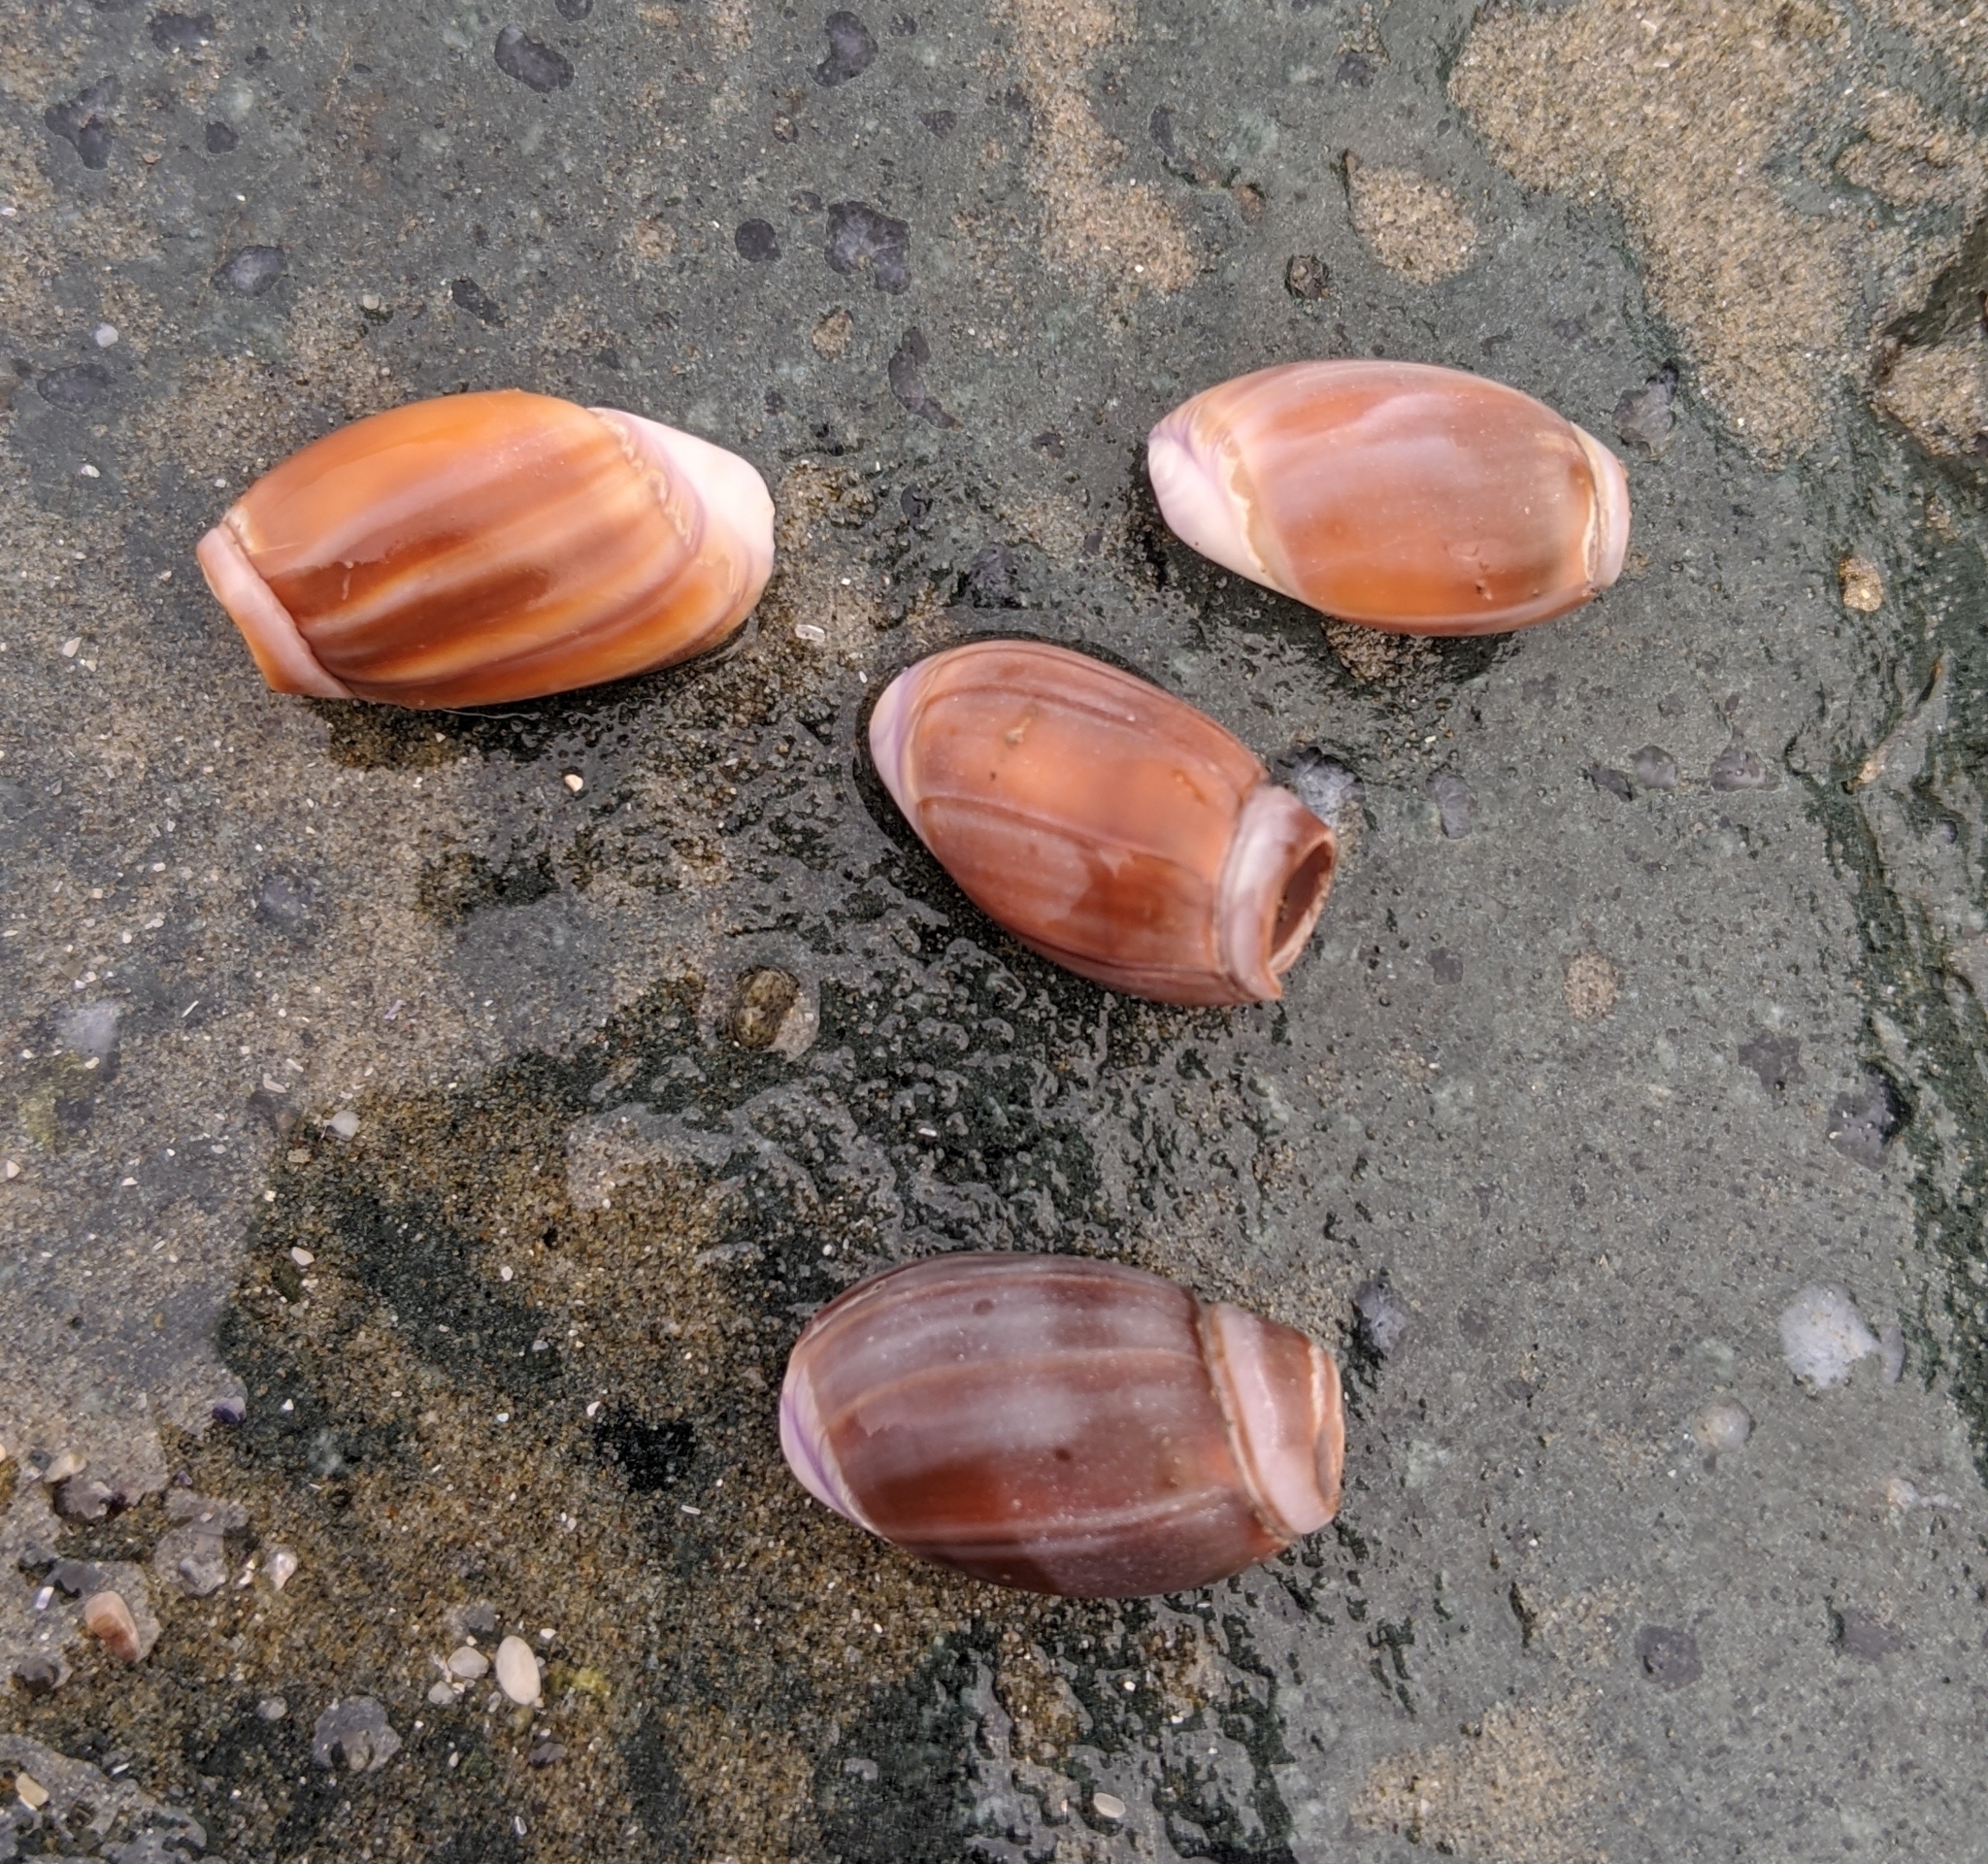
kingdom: Animalia
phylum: Mollusca
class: Gastropoda
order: Neogastropoda
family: Olividae
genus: Callianax
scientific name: Callianax biplicata
